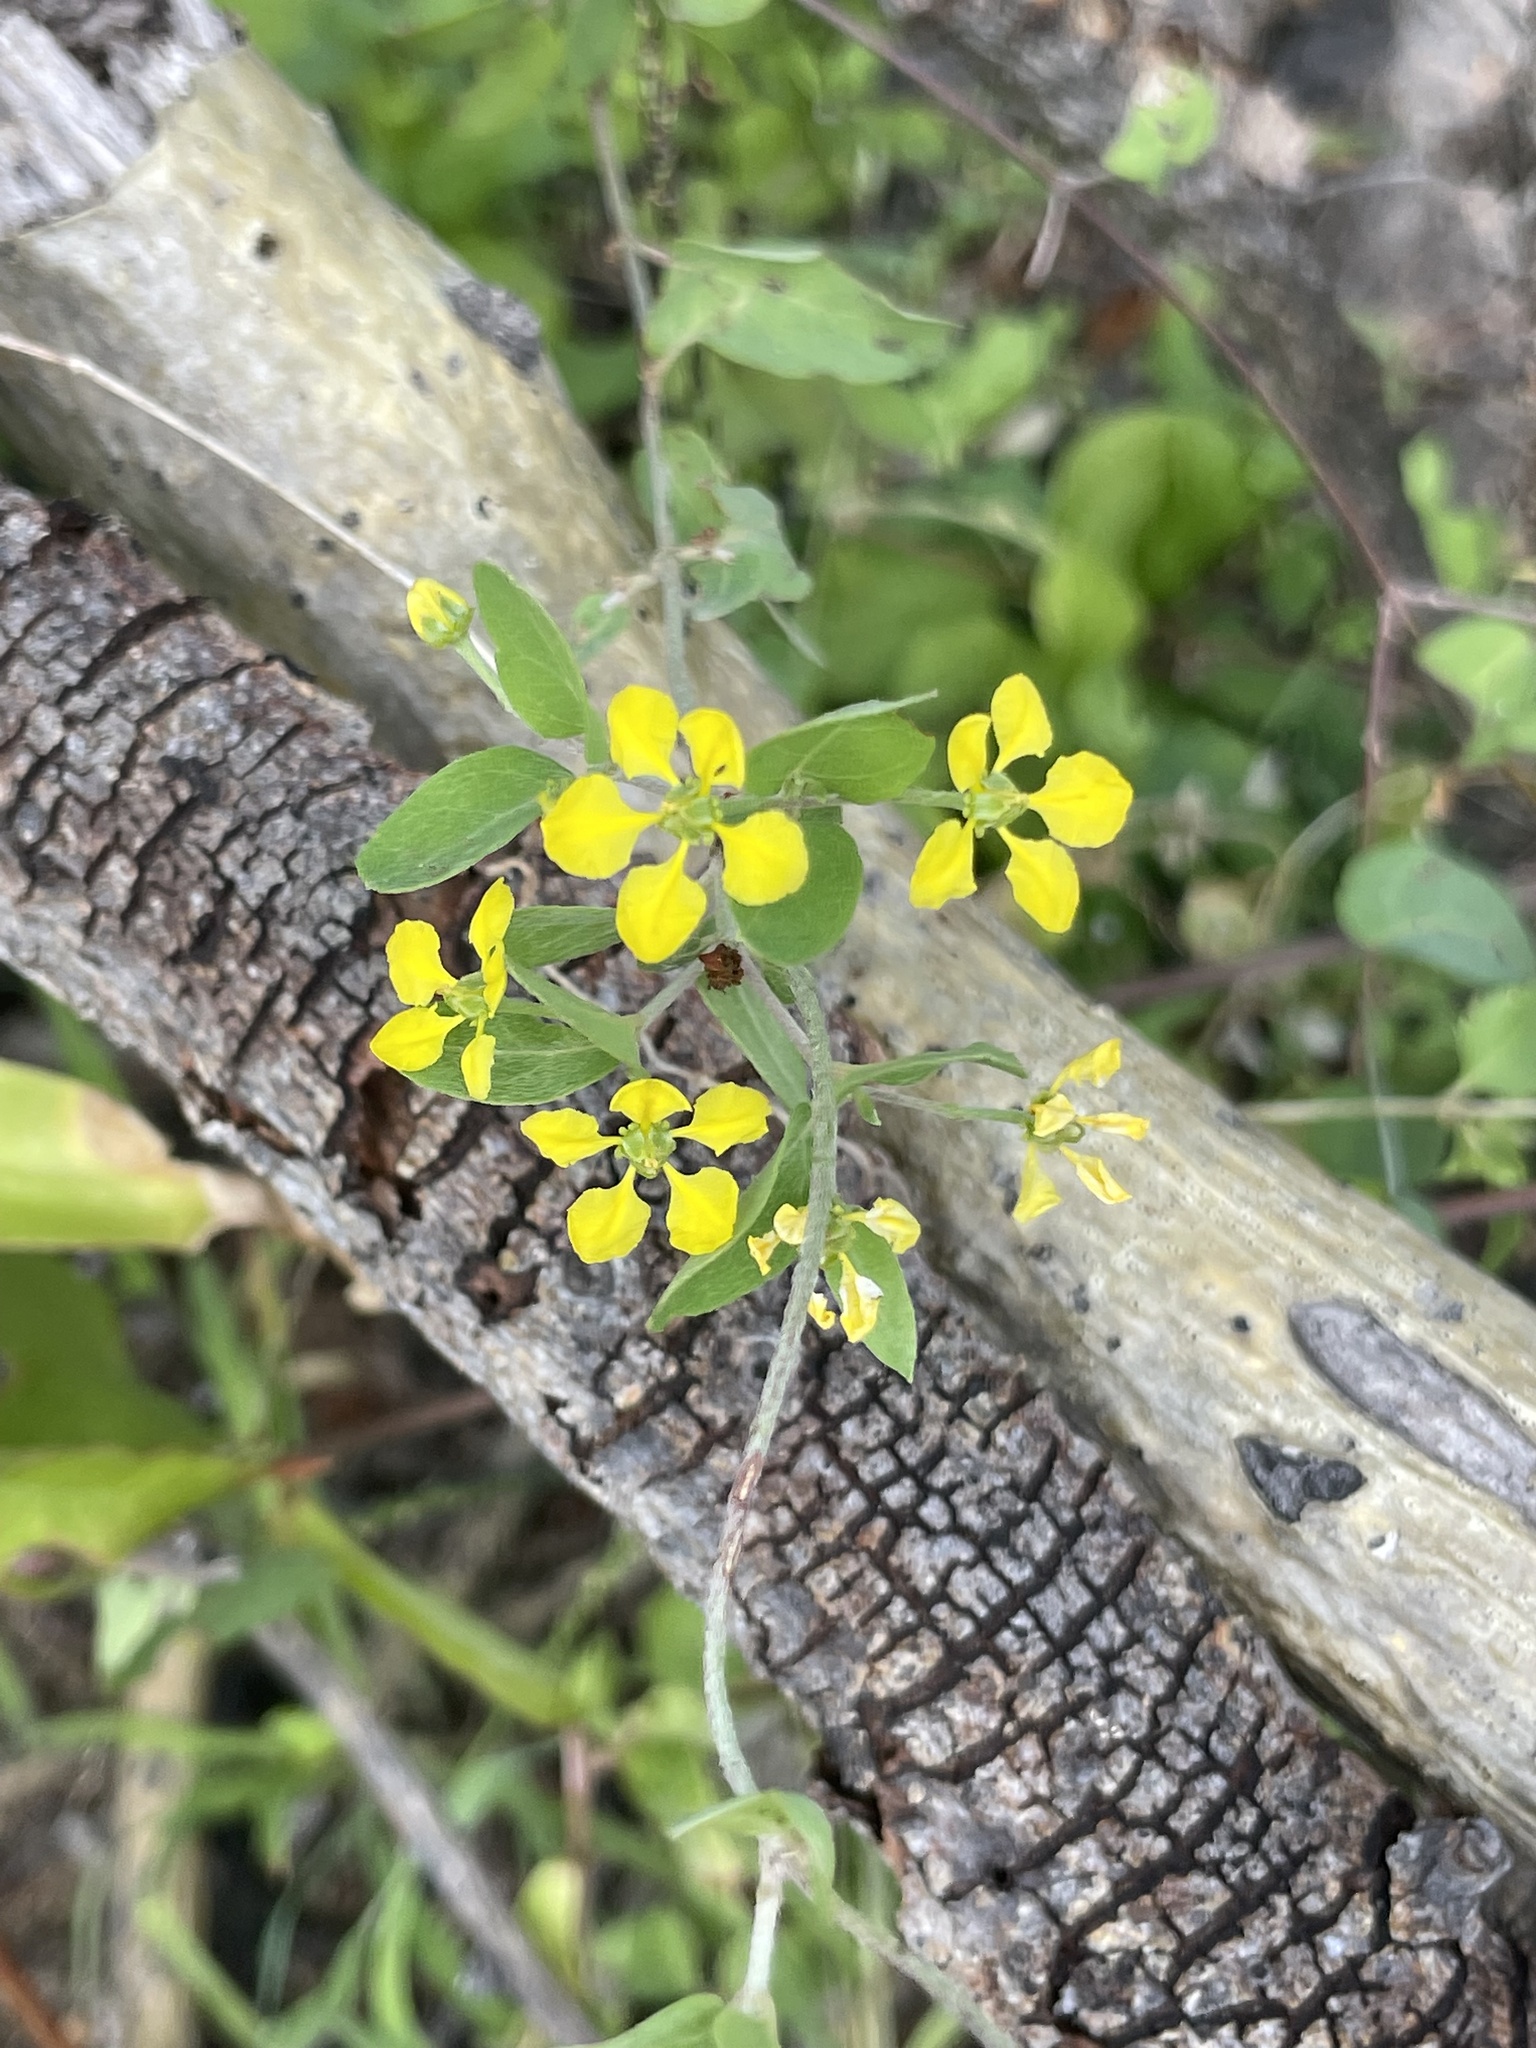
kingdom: Plantae
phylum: Tracheophyta
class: Magnoliopsida
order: Malpighiales
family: Malpighiaceae
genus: Cottsia
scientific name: Cottsia californica
